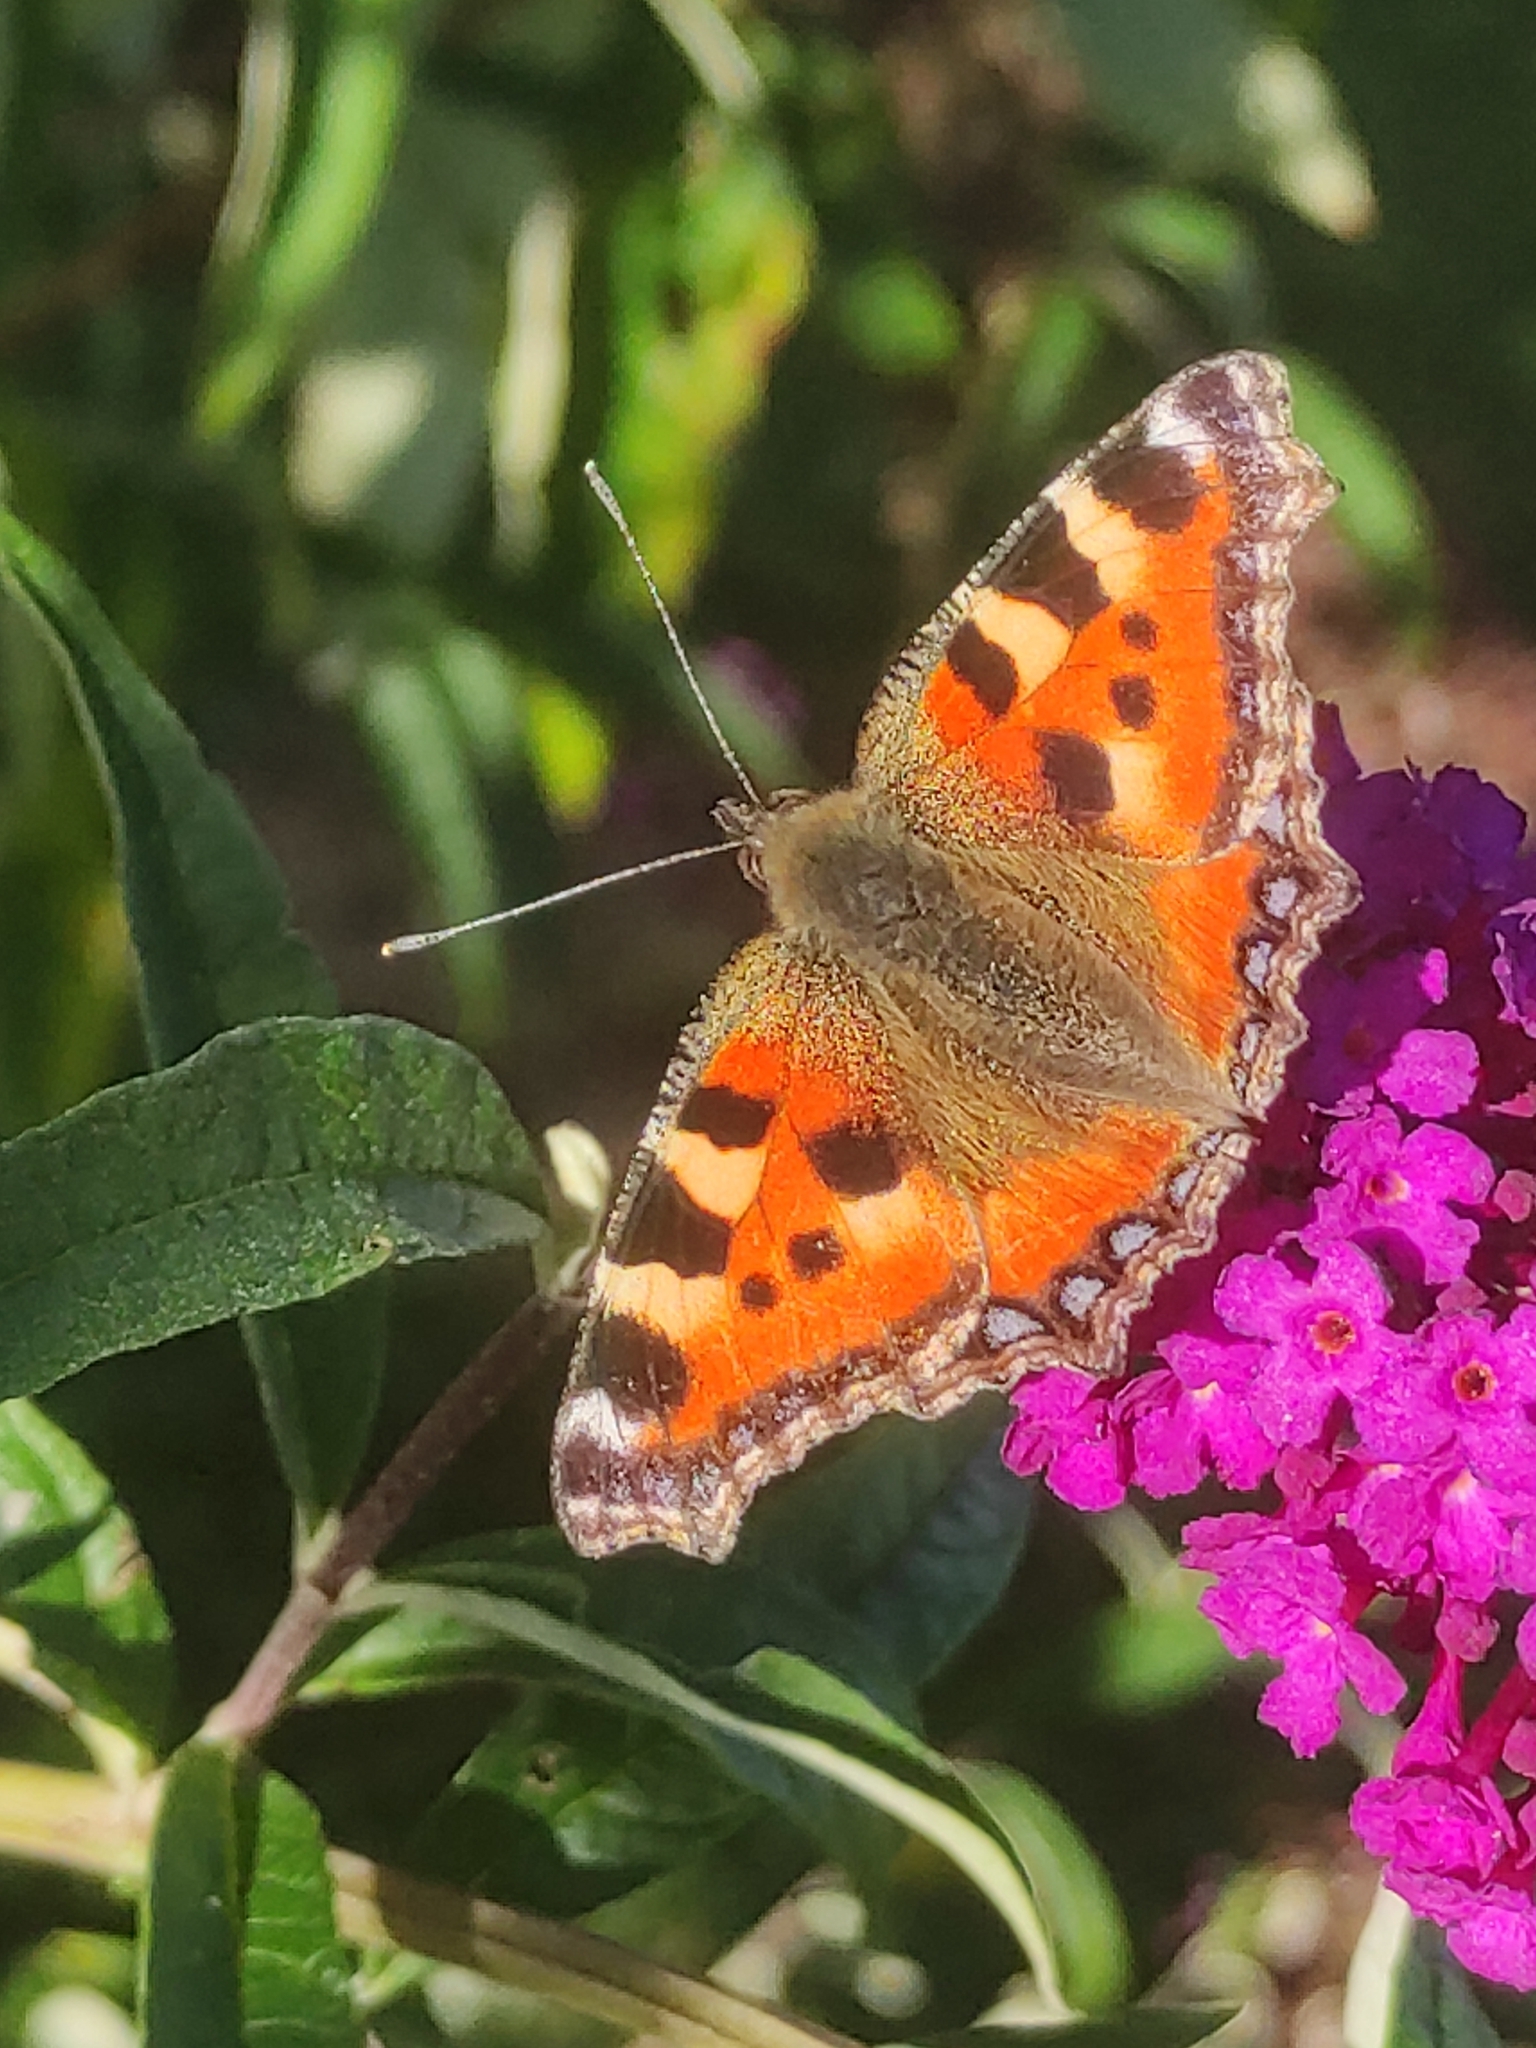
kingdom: Animalia
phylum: Arthropoda
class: Insecta
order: Lepidoptera
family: Nymphalidae
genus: Aglais
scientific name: Aglais urticae
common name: Small tortoiseshell
